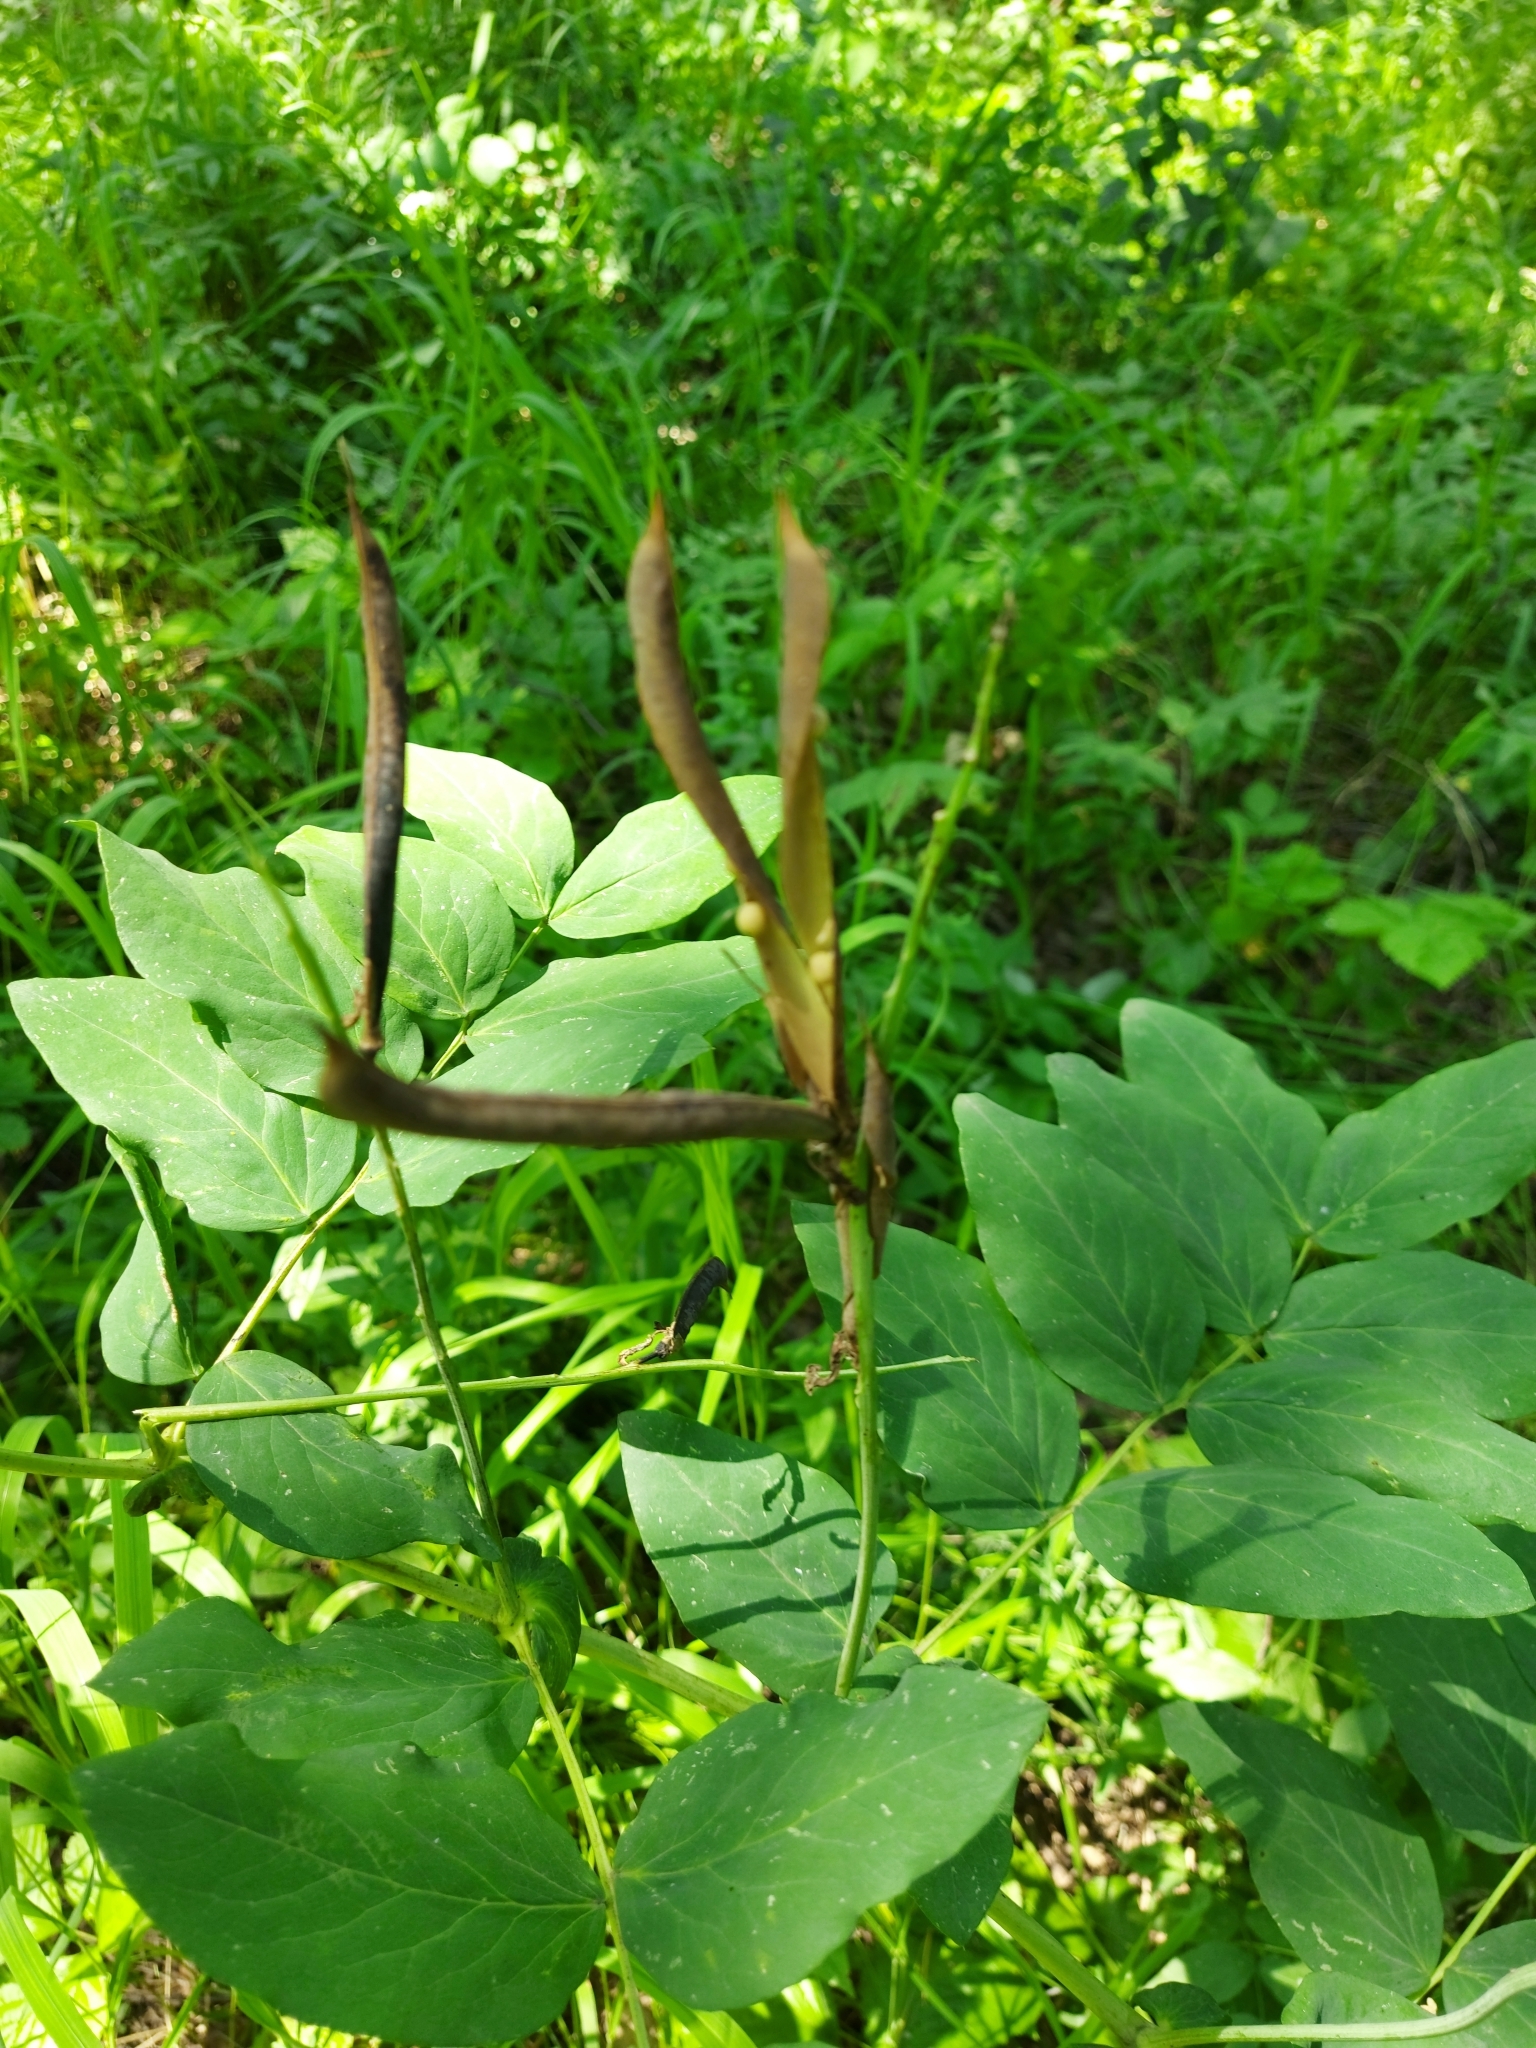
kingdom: Plantae
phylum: Tracheophyta
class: Magnoliopsida
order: Fabales
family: Fabaceae
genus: Lathyrus
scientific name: Lathyrus gmelinii
